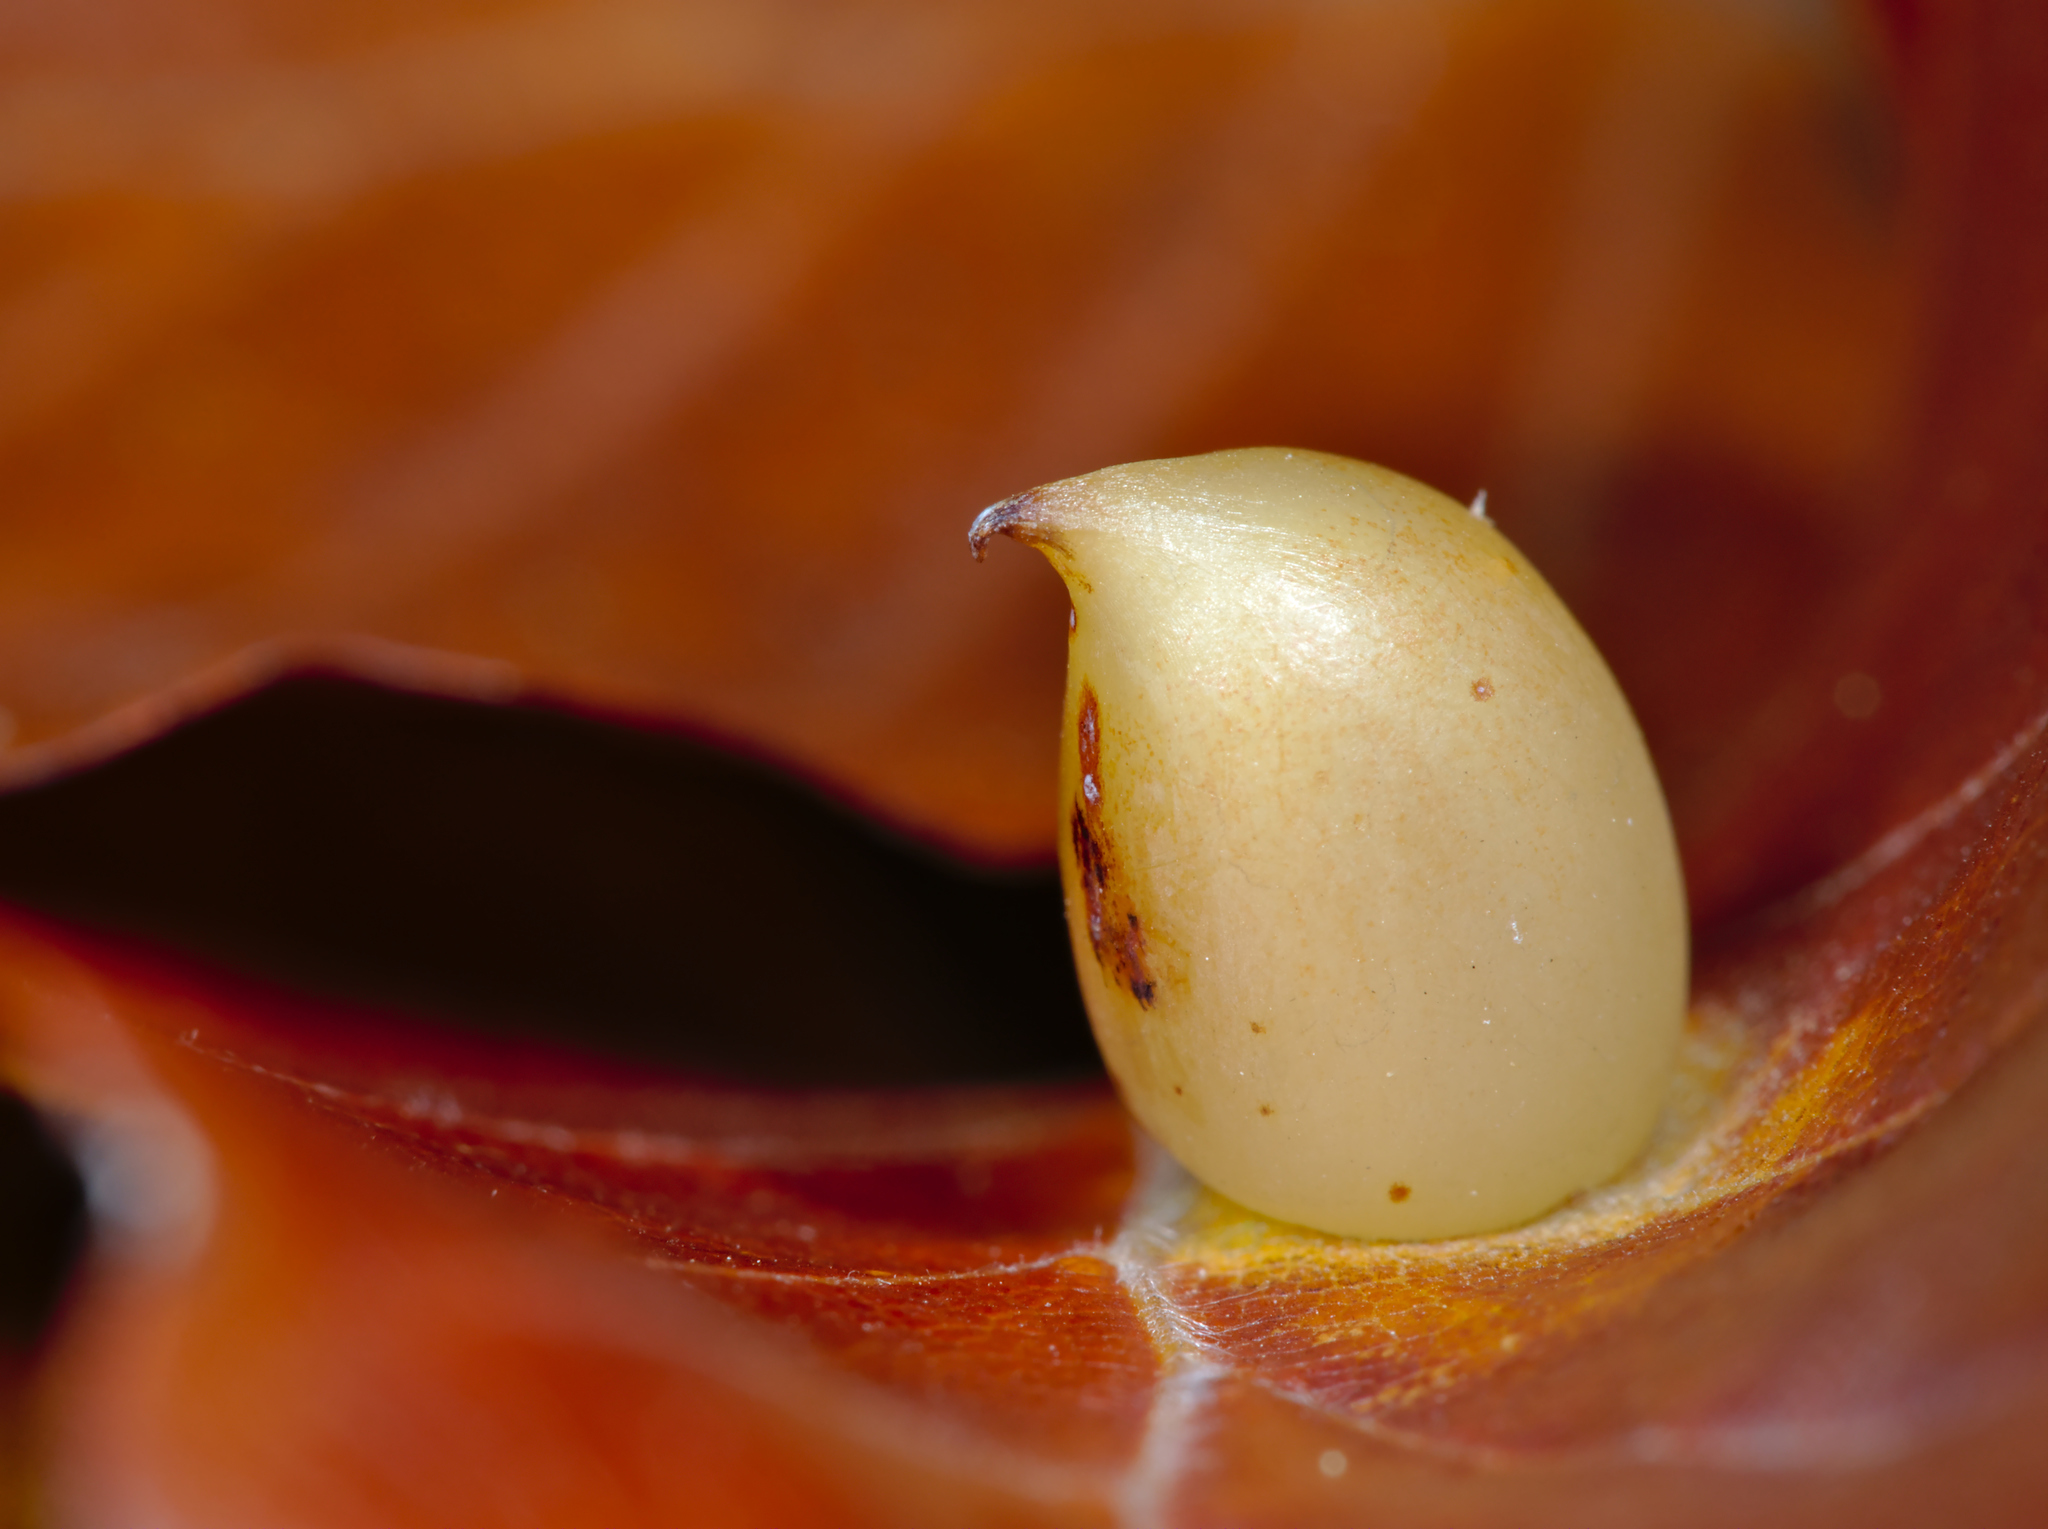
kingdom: Animalia
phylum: Arthropoda
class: Insecta
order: Diptera
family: Cecidomyiidae
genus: Mikiola
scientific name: Mikiola fagi
